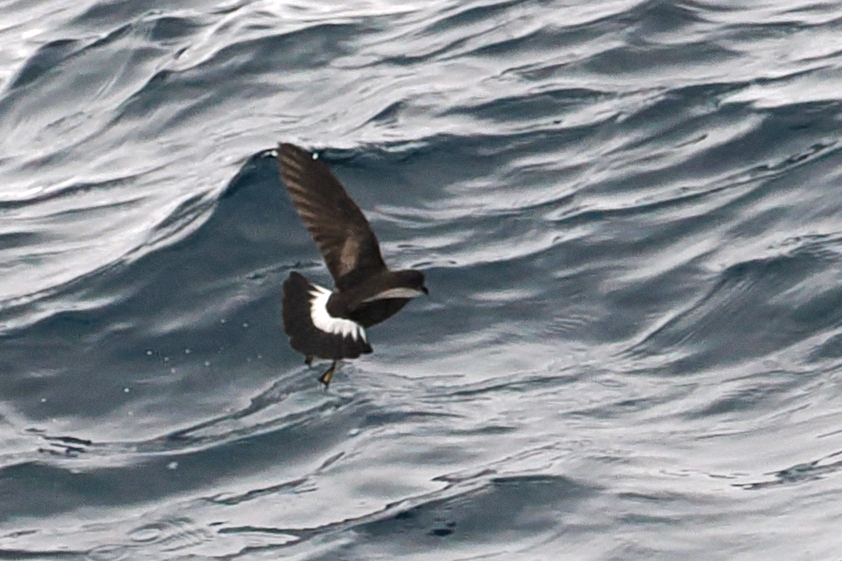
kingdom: Animalia
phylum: Chordata
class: Aves
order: Procellariiformes
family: Hydrobatidae
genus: Oceanites
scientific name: Oceanites oceanicus
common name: Wilson's storm petrel
